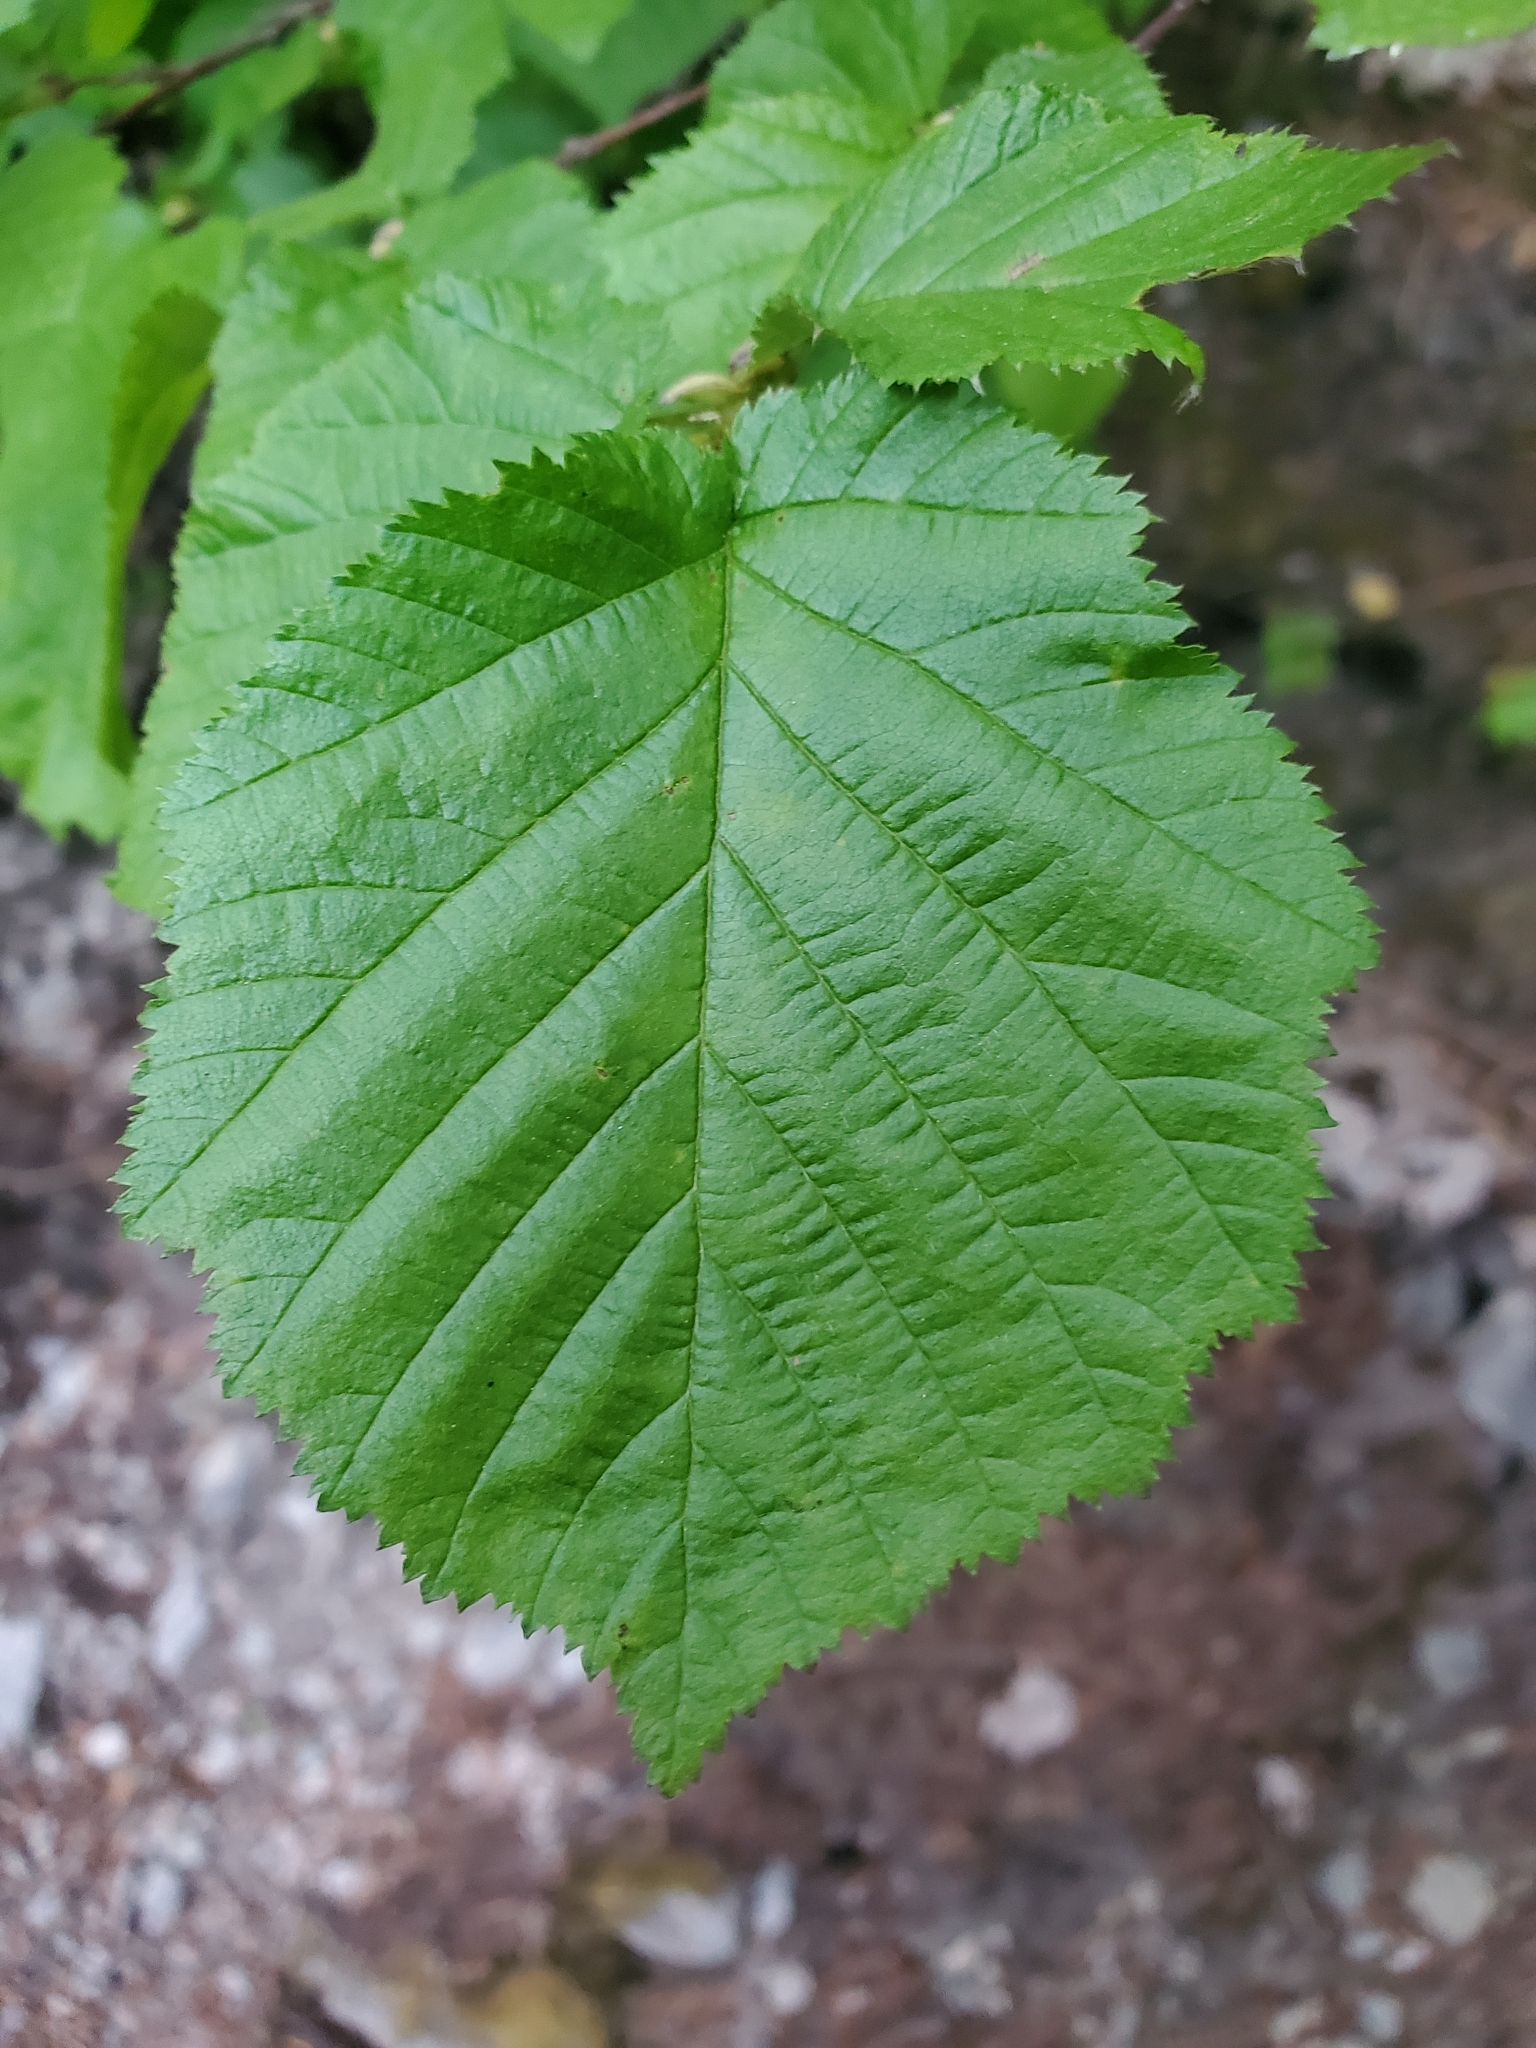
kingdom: Plantae
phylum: Tracheophyta
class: Magnoliopsida
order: Fagales
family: Betulaceae
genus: Corylus
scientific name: Corylus cornuta
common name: Beaked hazel
